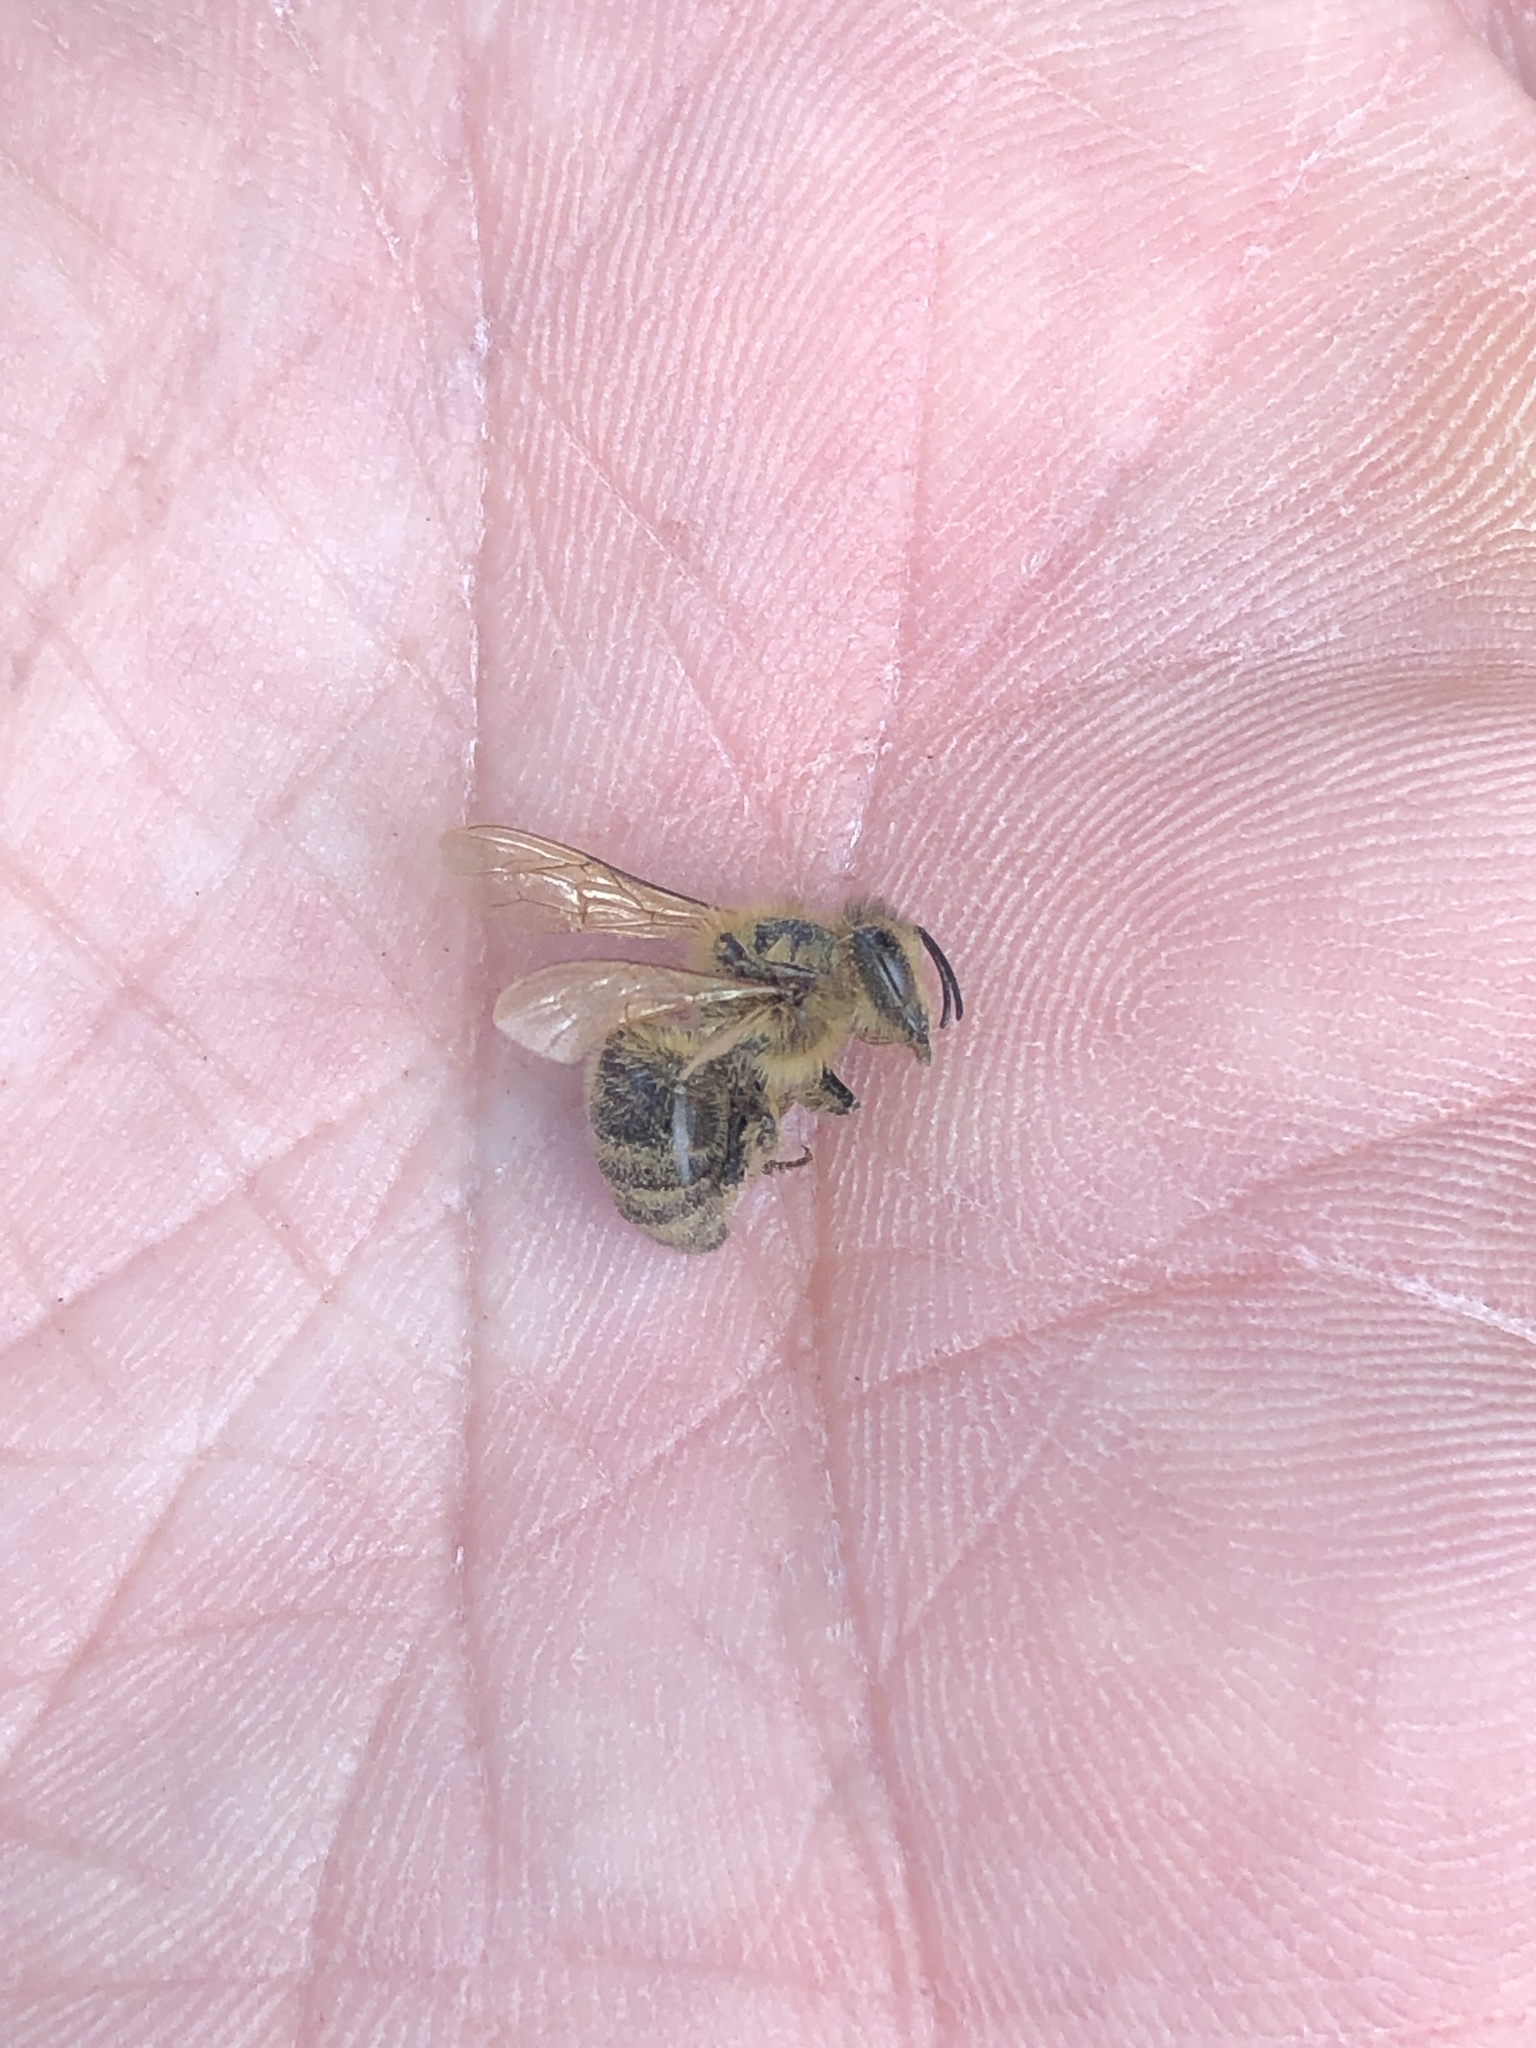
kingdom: Animalia
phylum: Arthropoda
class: Insecta
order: Hymenoptera
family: Apidae
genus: Apis
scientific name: Apis mellifera
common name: Honey bee
